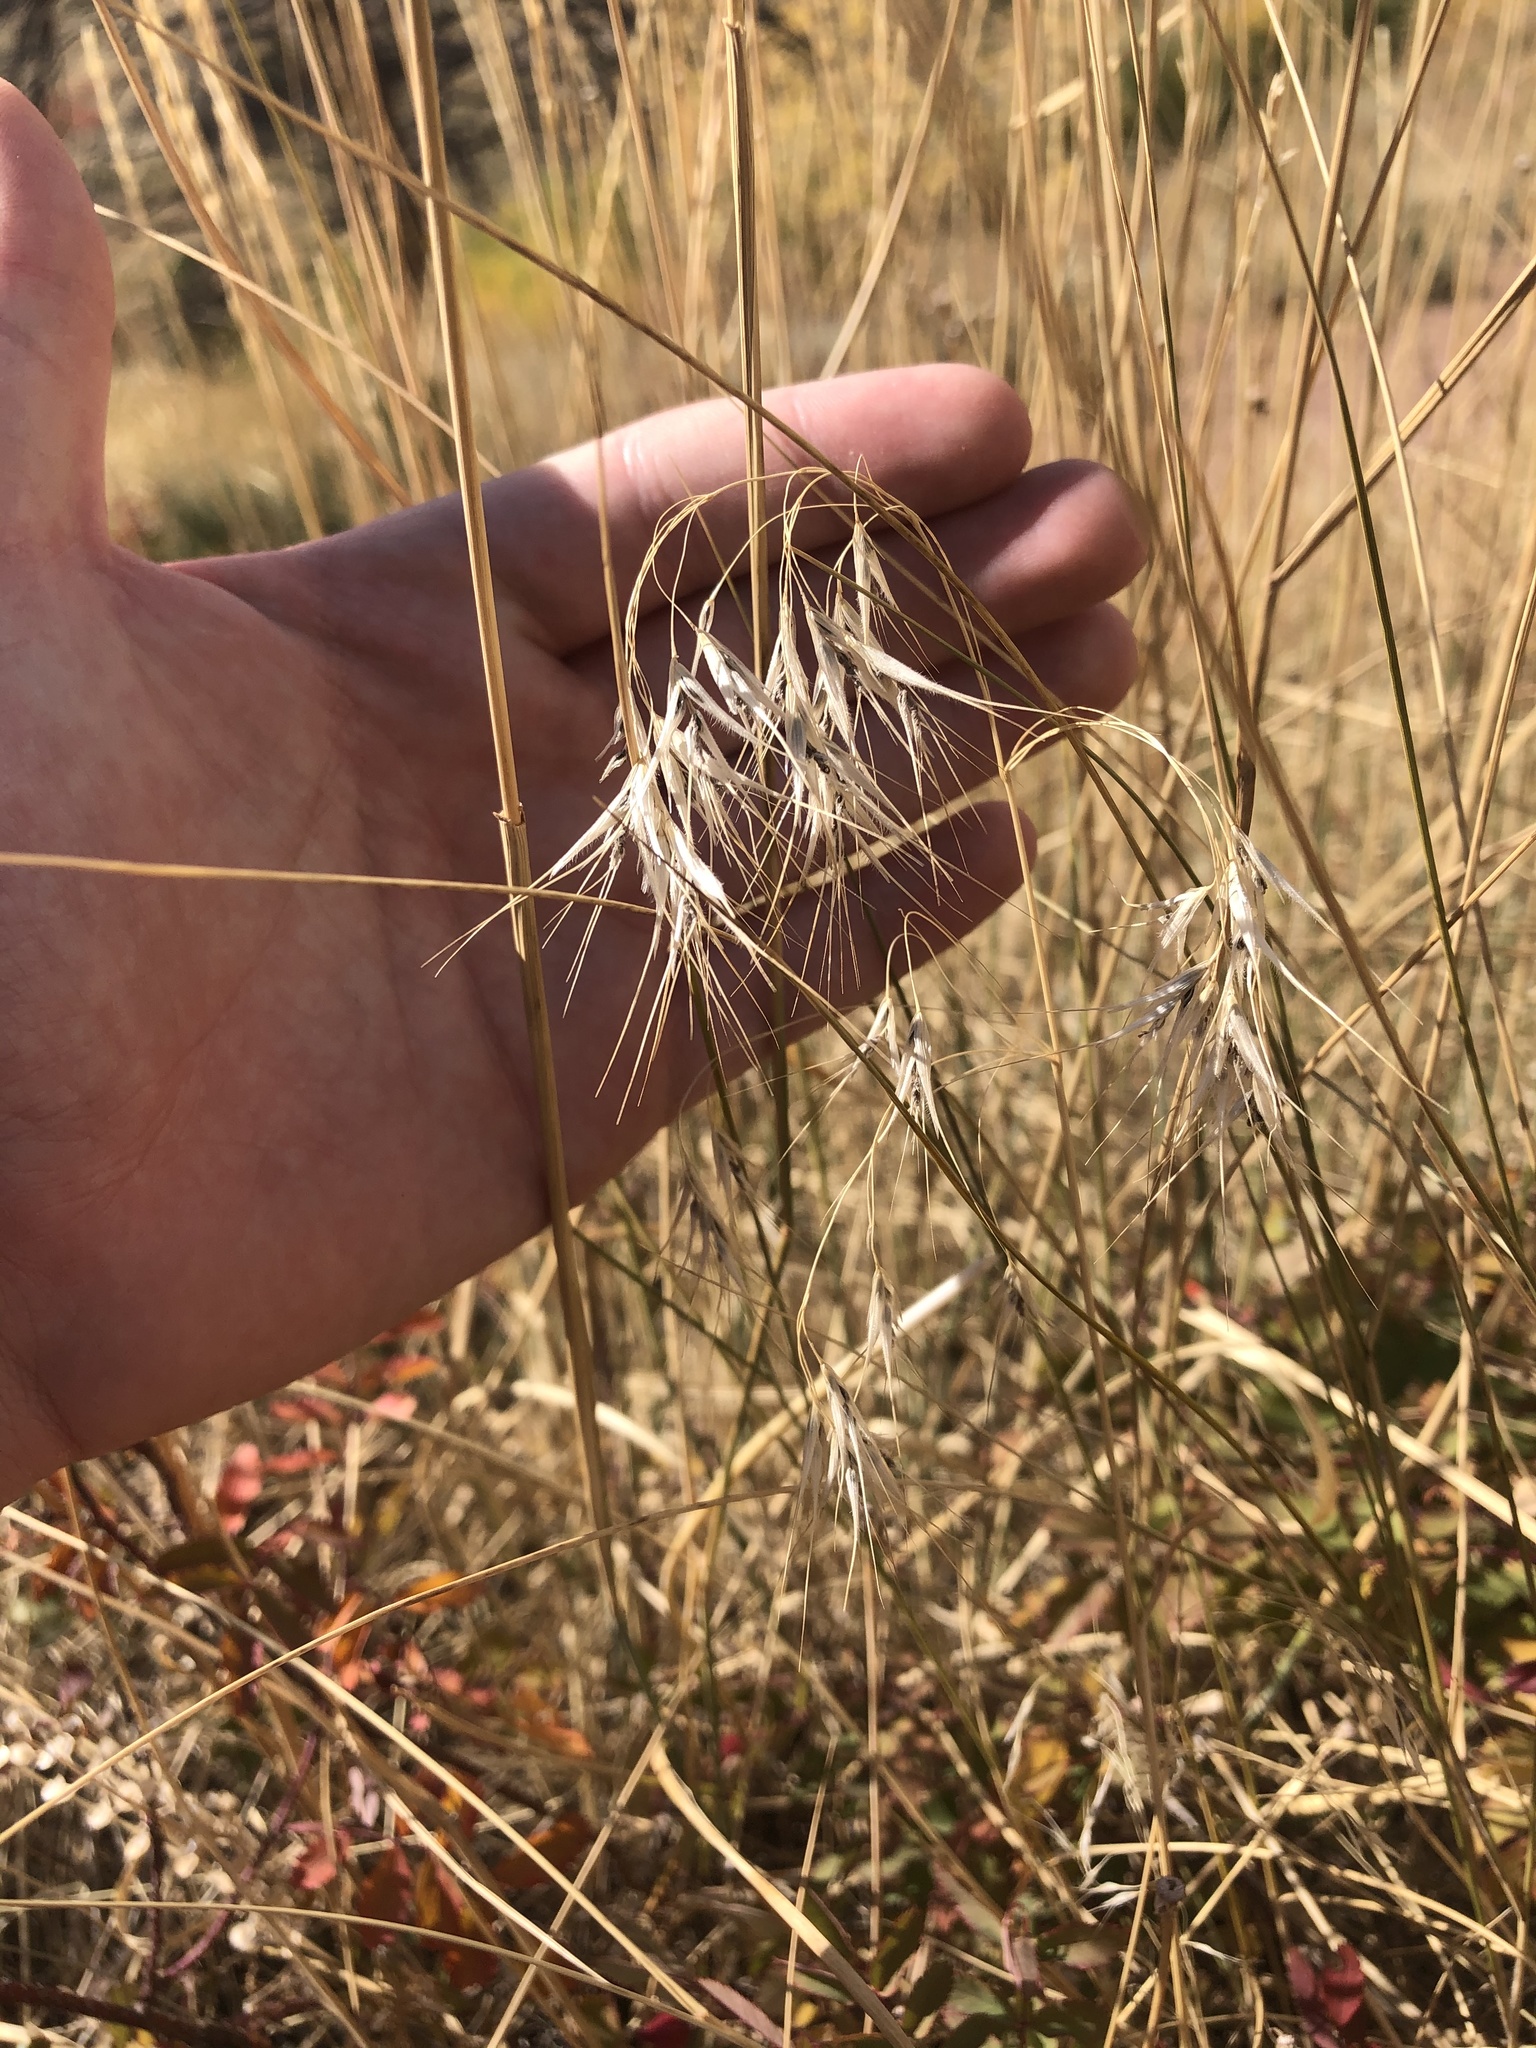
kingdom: Plantae
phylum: Tracheophyta
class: Liliopsida
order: Poales
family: Poaceae
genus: Bromus
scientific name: Bromus tectorum
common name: Cheatgrass
